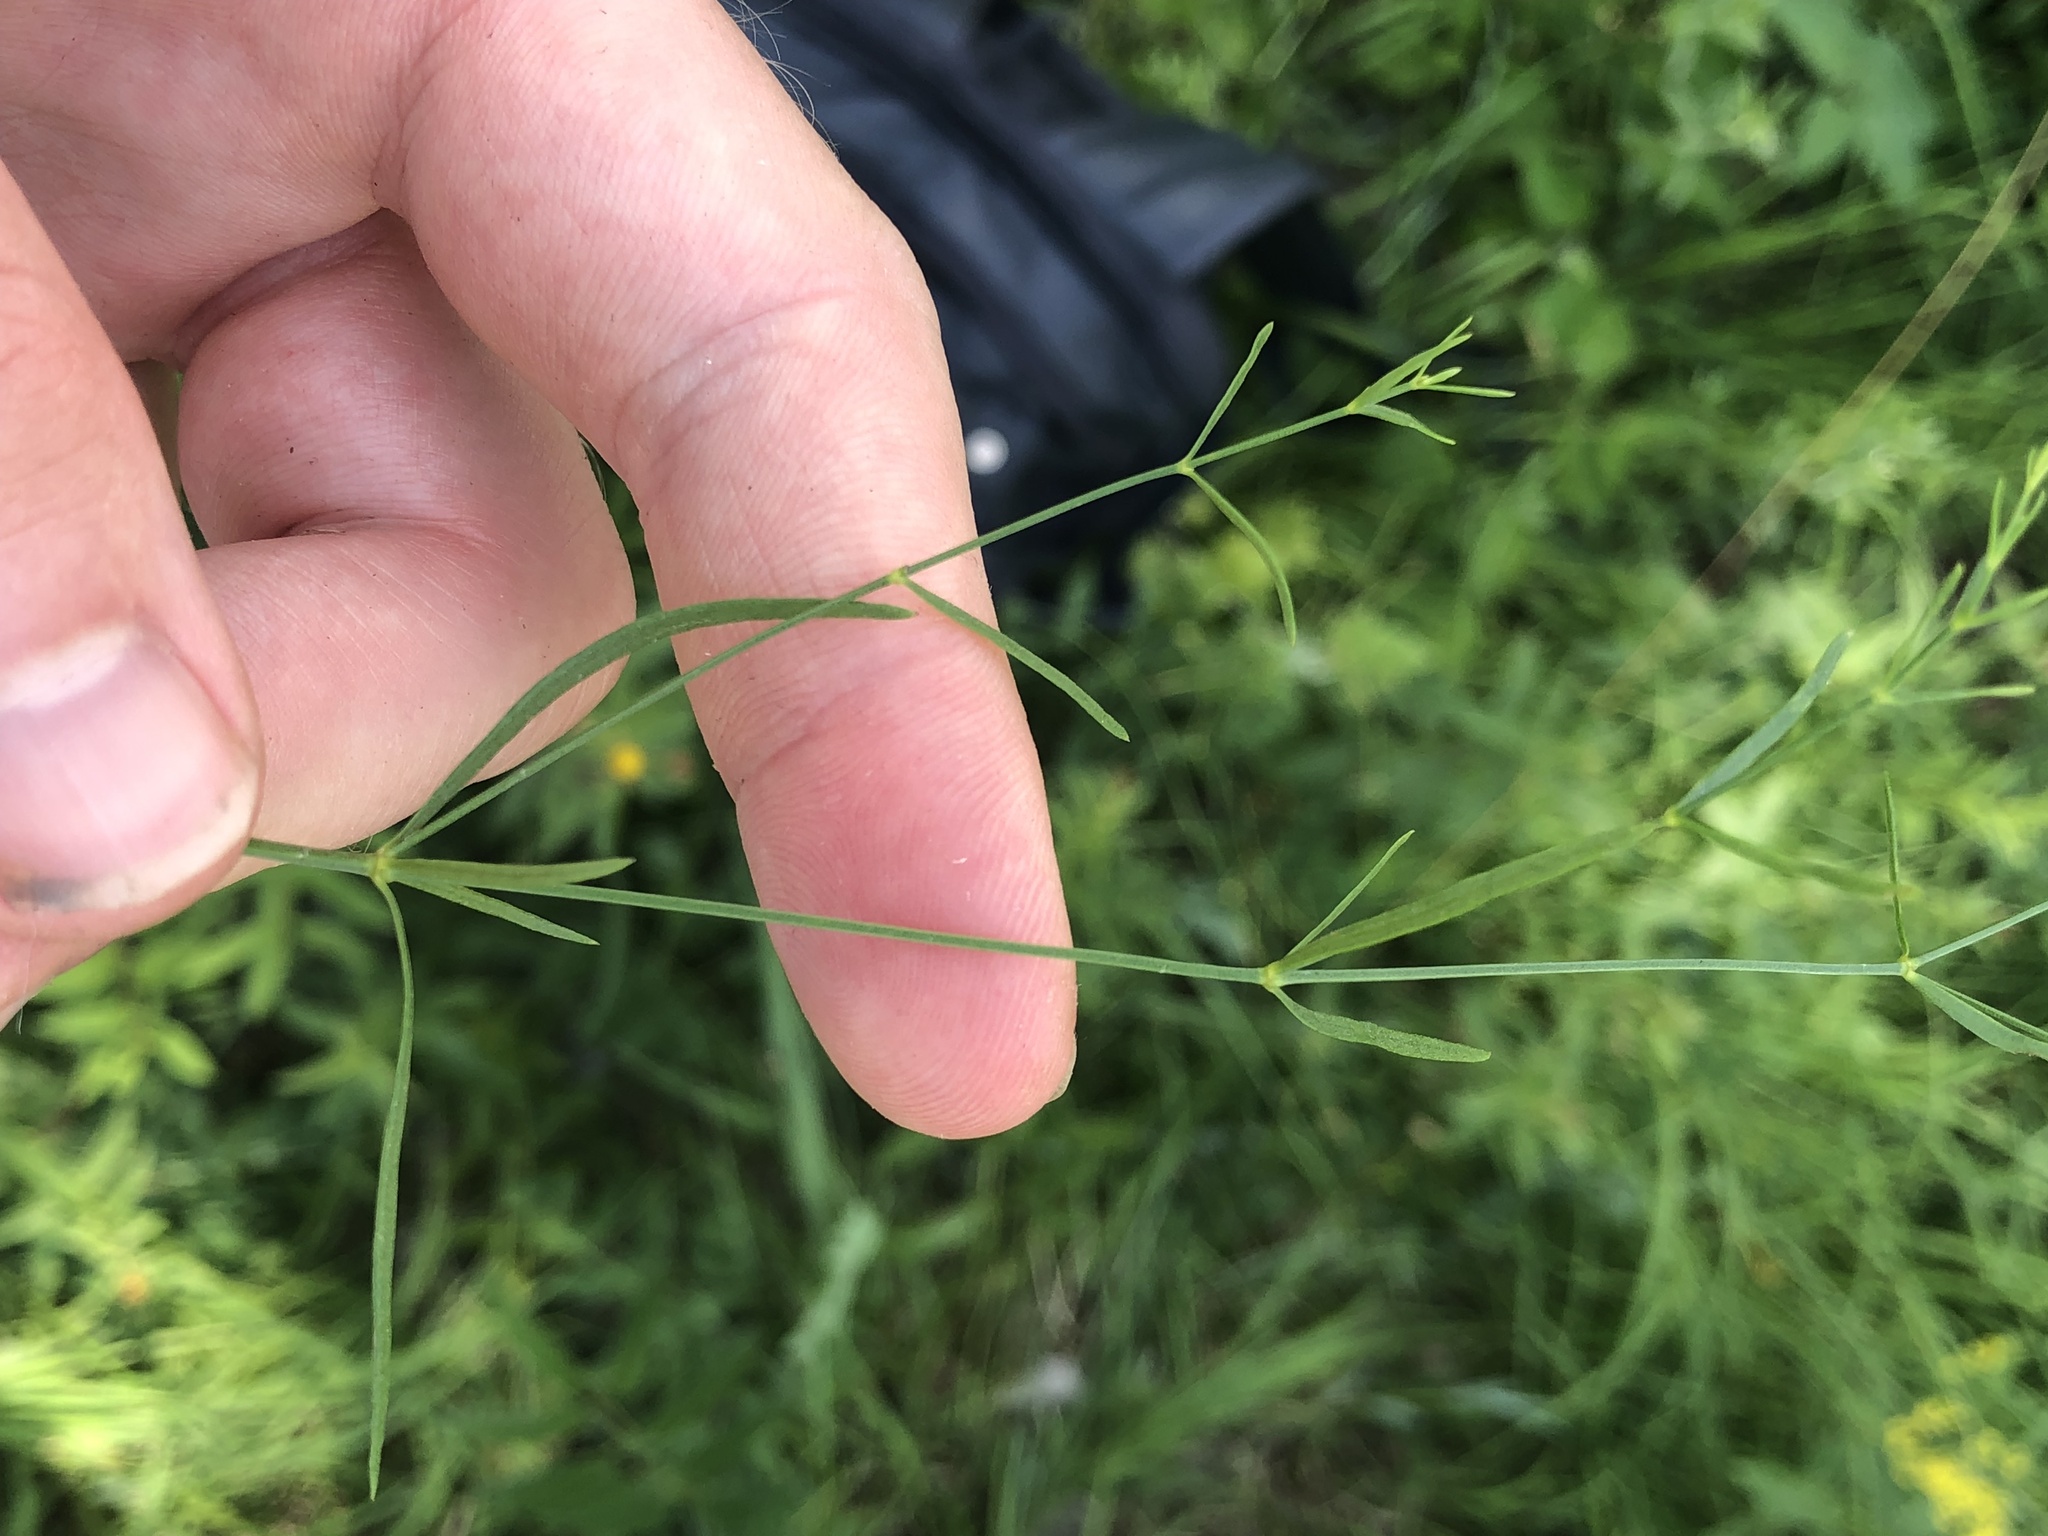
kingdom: Plantae
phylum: Tracheophyta
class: Magnoliopsida
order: Gentianales
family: Rubiaceae
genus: Asperula
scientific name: Asperula tinctoria
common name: Dyer's woodruff
